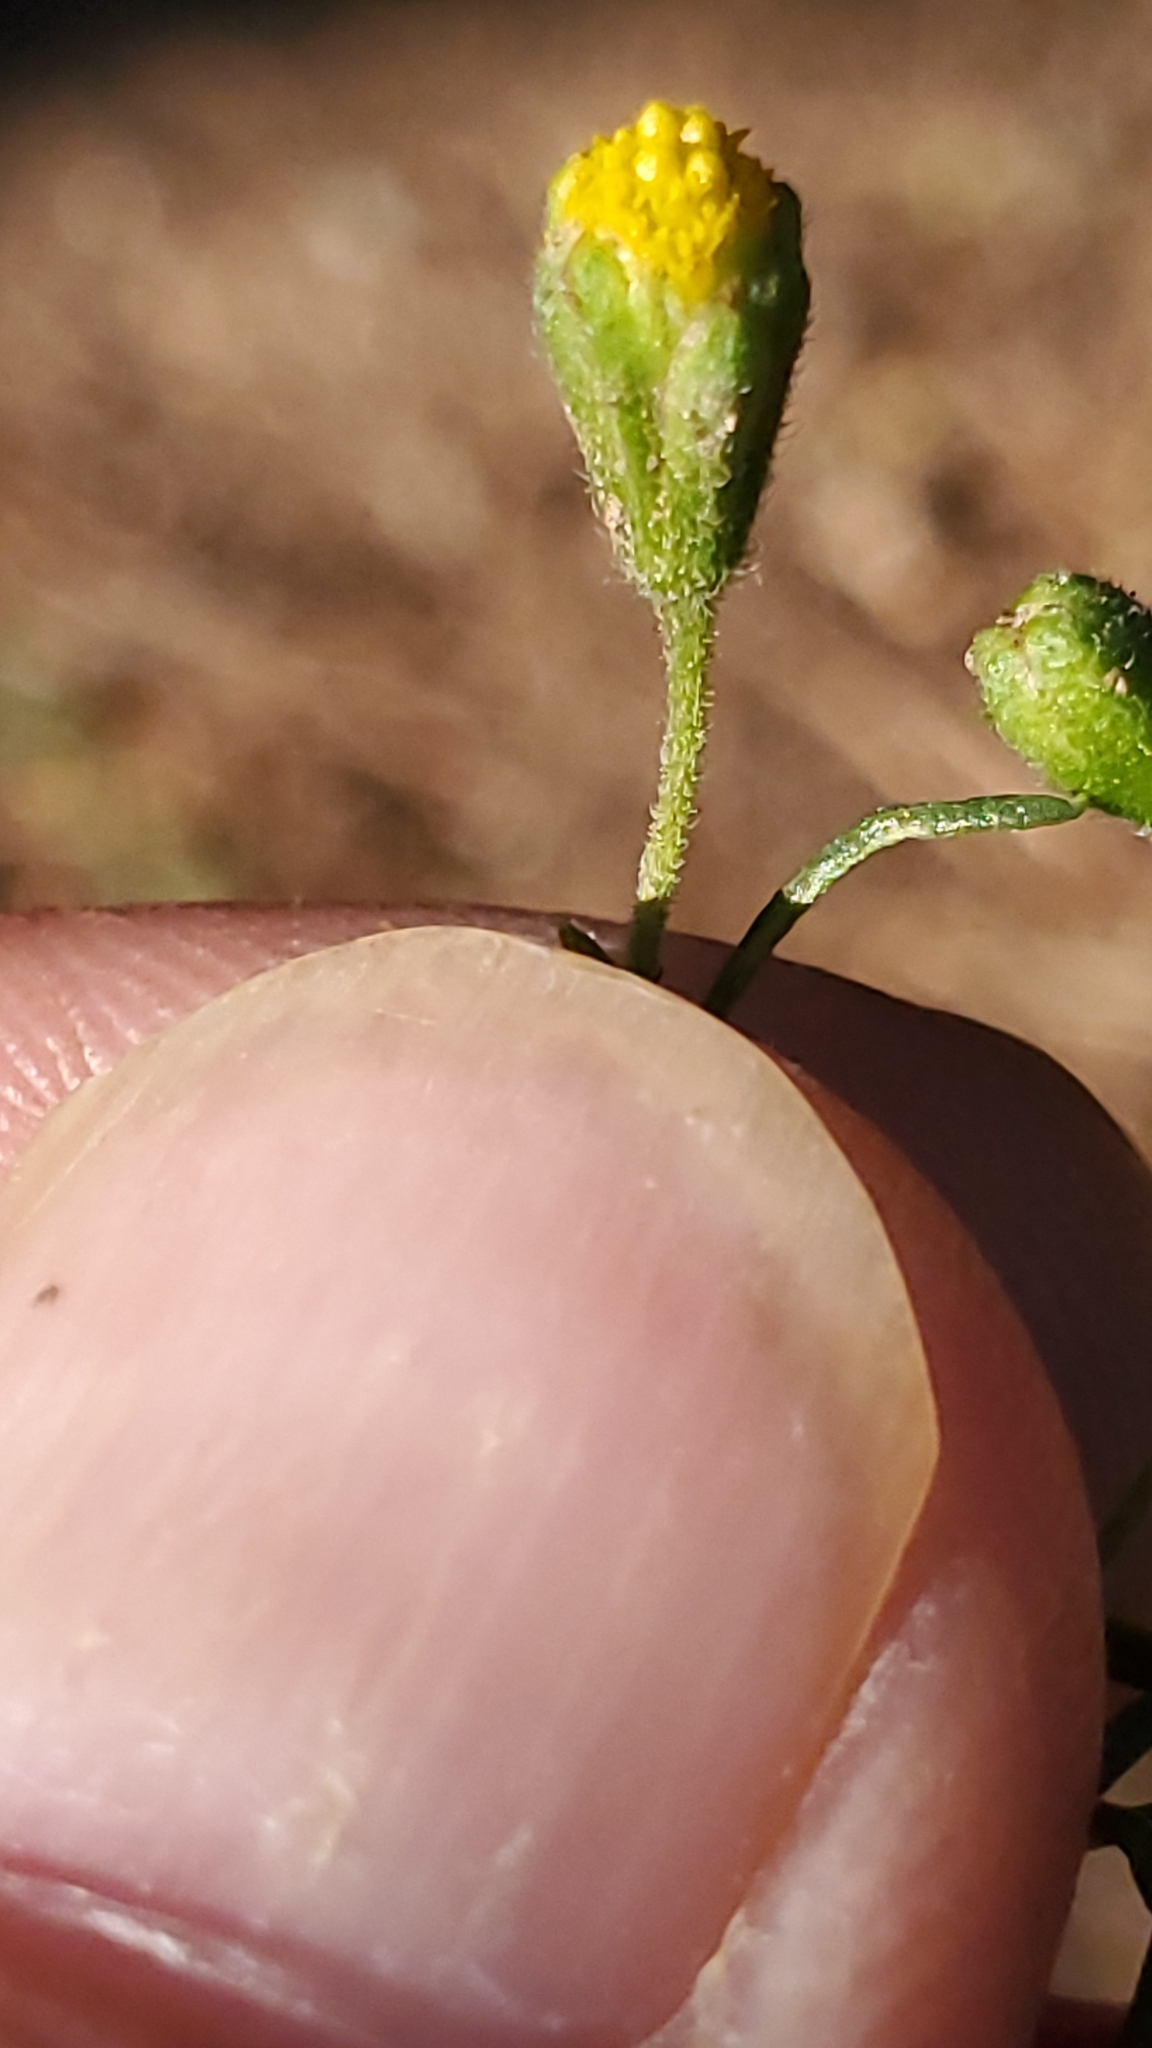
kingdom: Plantae
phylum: Tracheophyta
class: Magnoliopsida
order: Asterales
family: Asteraceae
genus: Picradeniopsis
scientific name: Picradeniopsis multiflora
